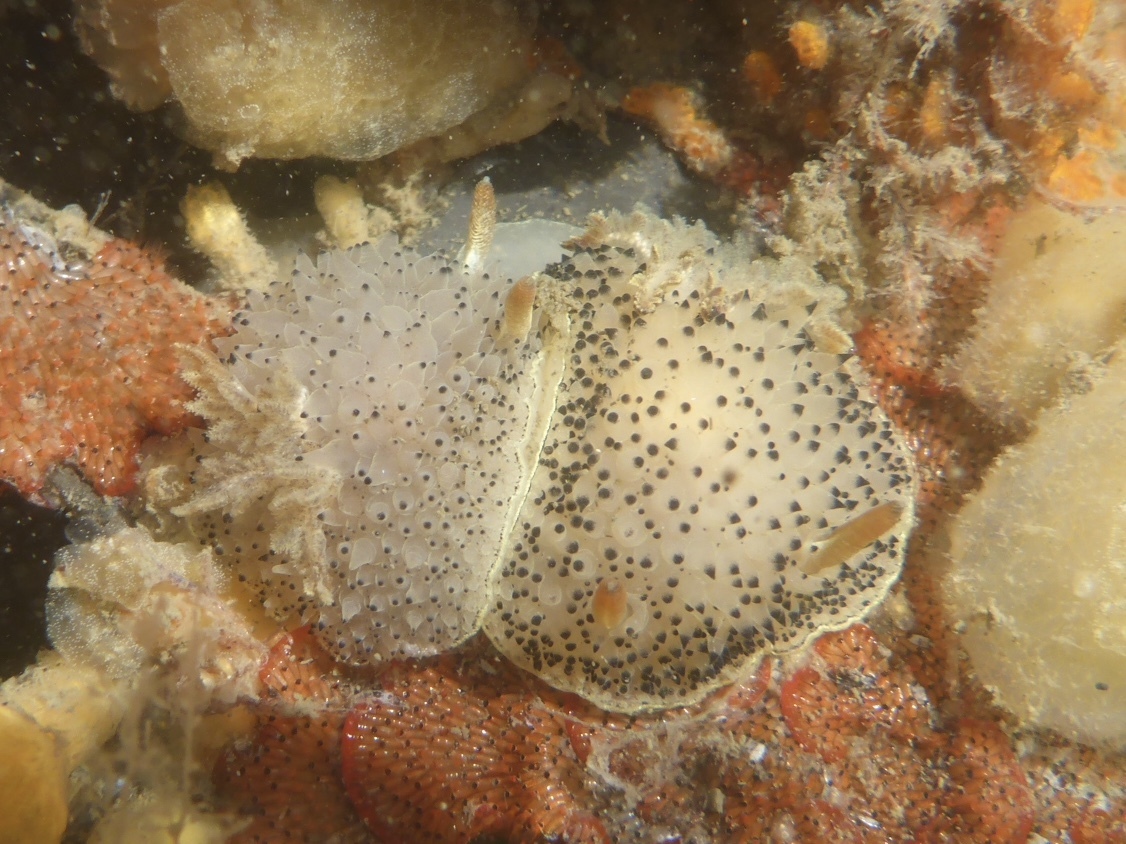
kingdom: Animalia
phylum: Mollusca
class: Gastropoda
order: Nudibranchia
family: Onchidorididae
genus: Acanthodoris
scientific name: Acanthodoris rhodoceras
